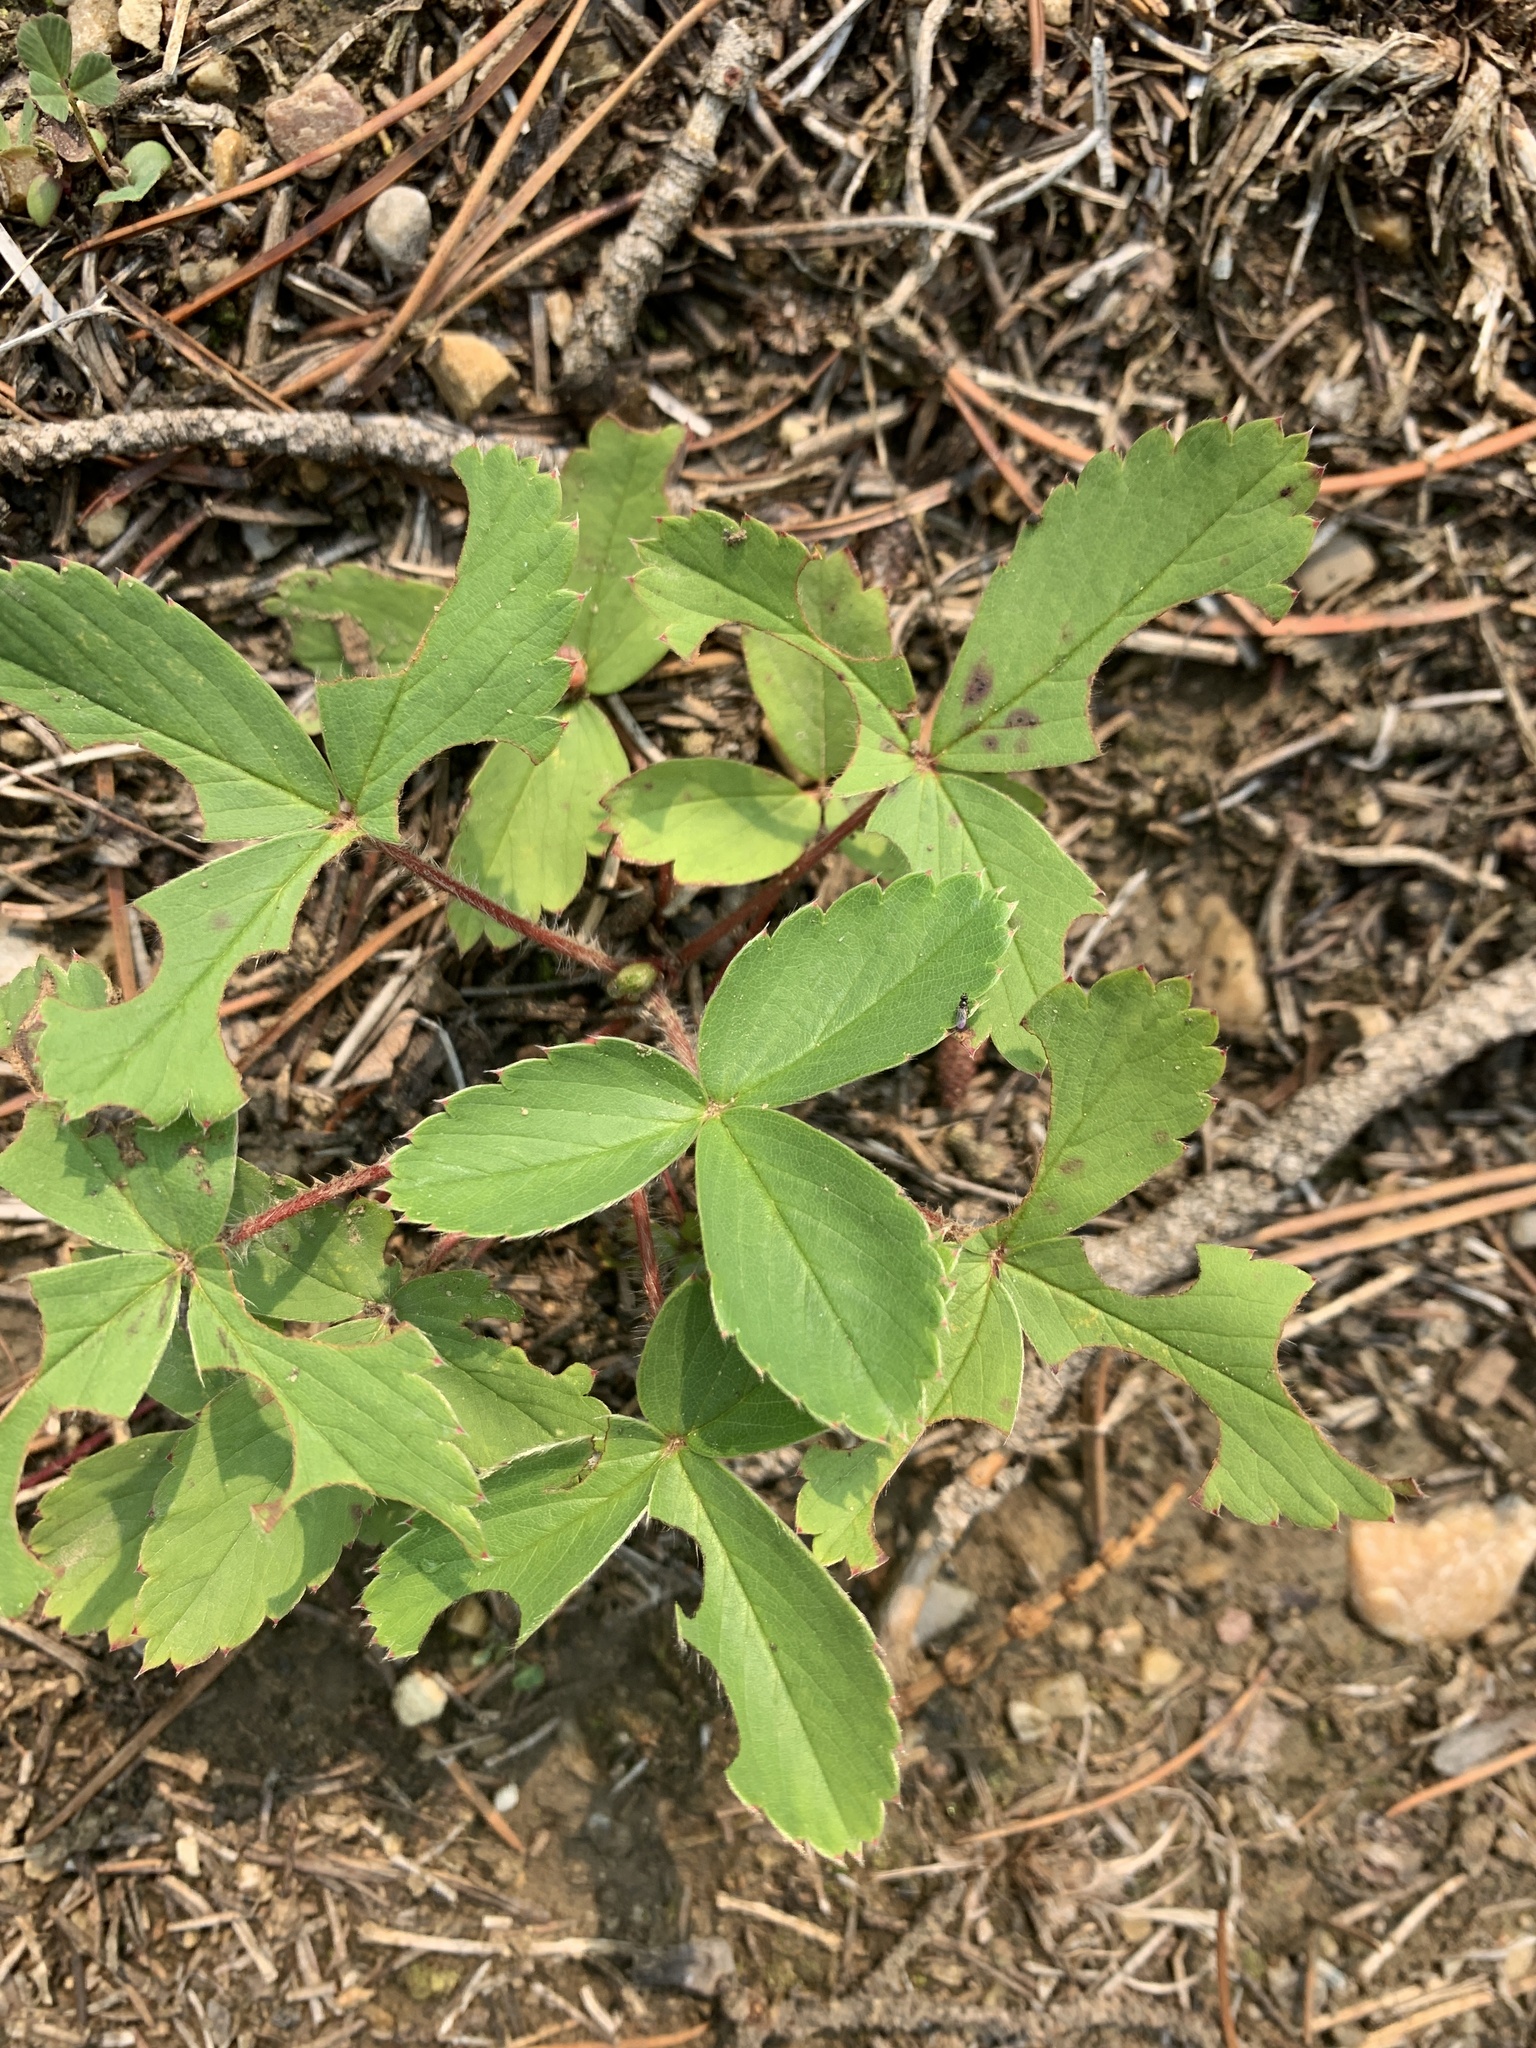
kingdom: Plantae
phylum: Tracheophyta
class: Magnoliopsida
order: Rosales
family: Rosaceae
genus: Fragaria
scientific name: Fragaria virginiana
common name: Thickleaved wild strawberry
